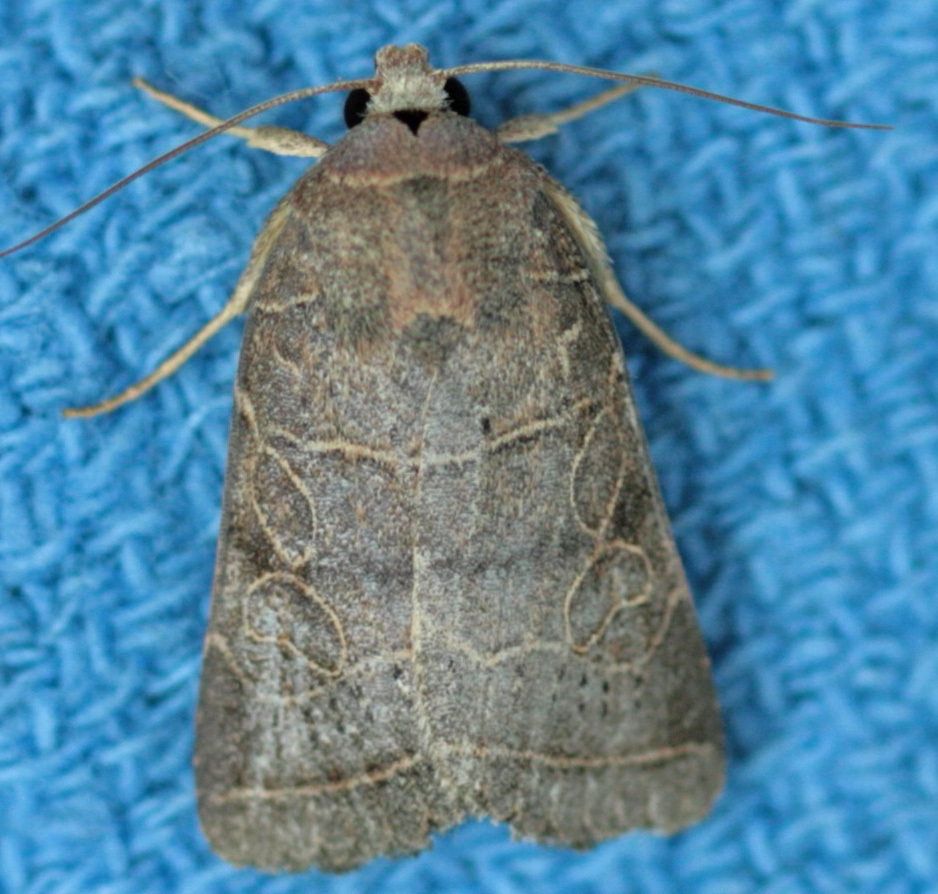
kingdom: Animalia
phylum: Arthropoda
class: Insecta
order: Lepidoptera
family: Noctuidae
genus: Orthodes
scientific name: Orthodes majuscula
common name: Rustic quaker
